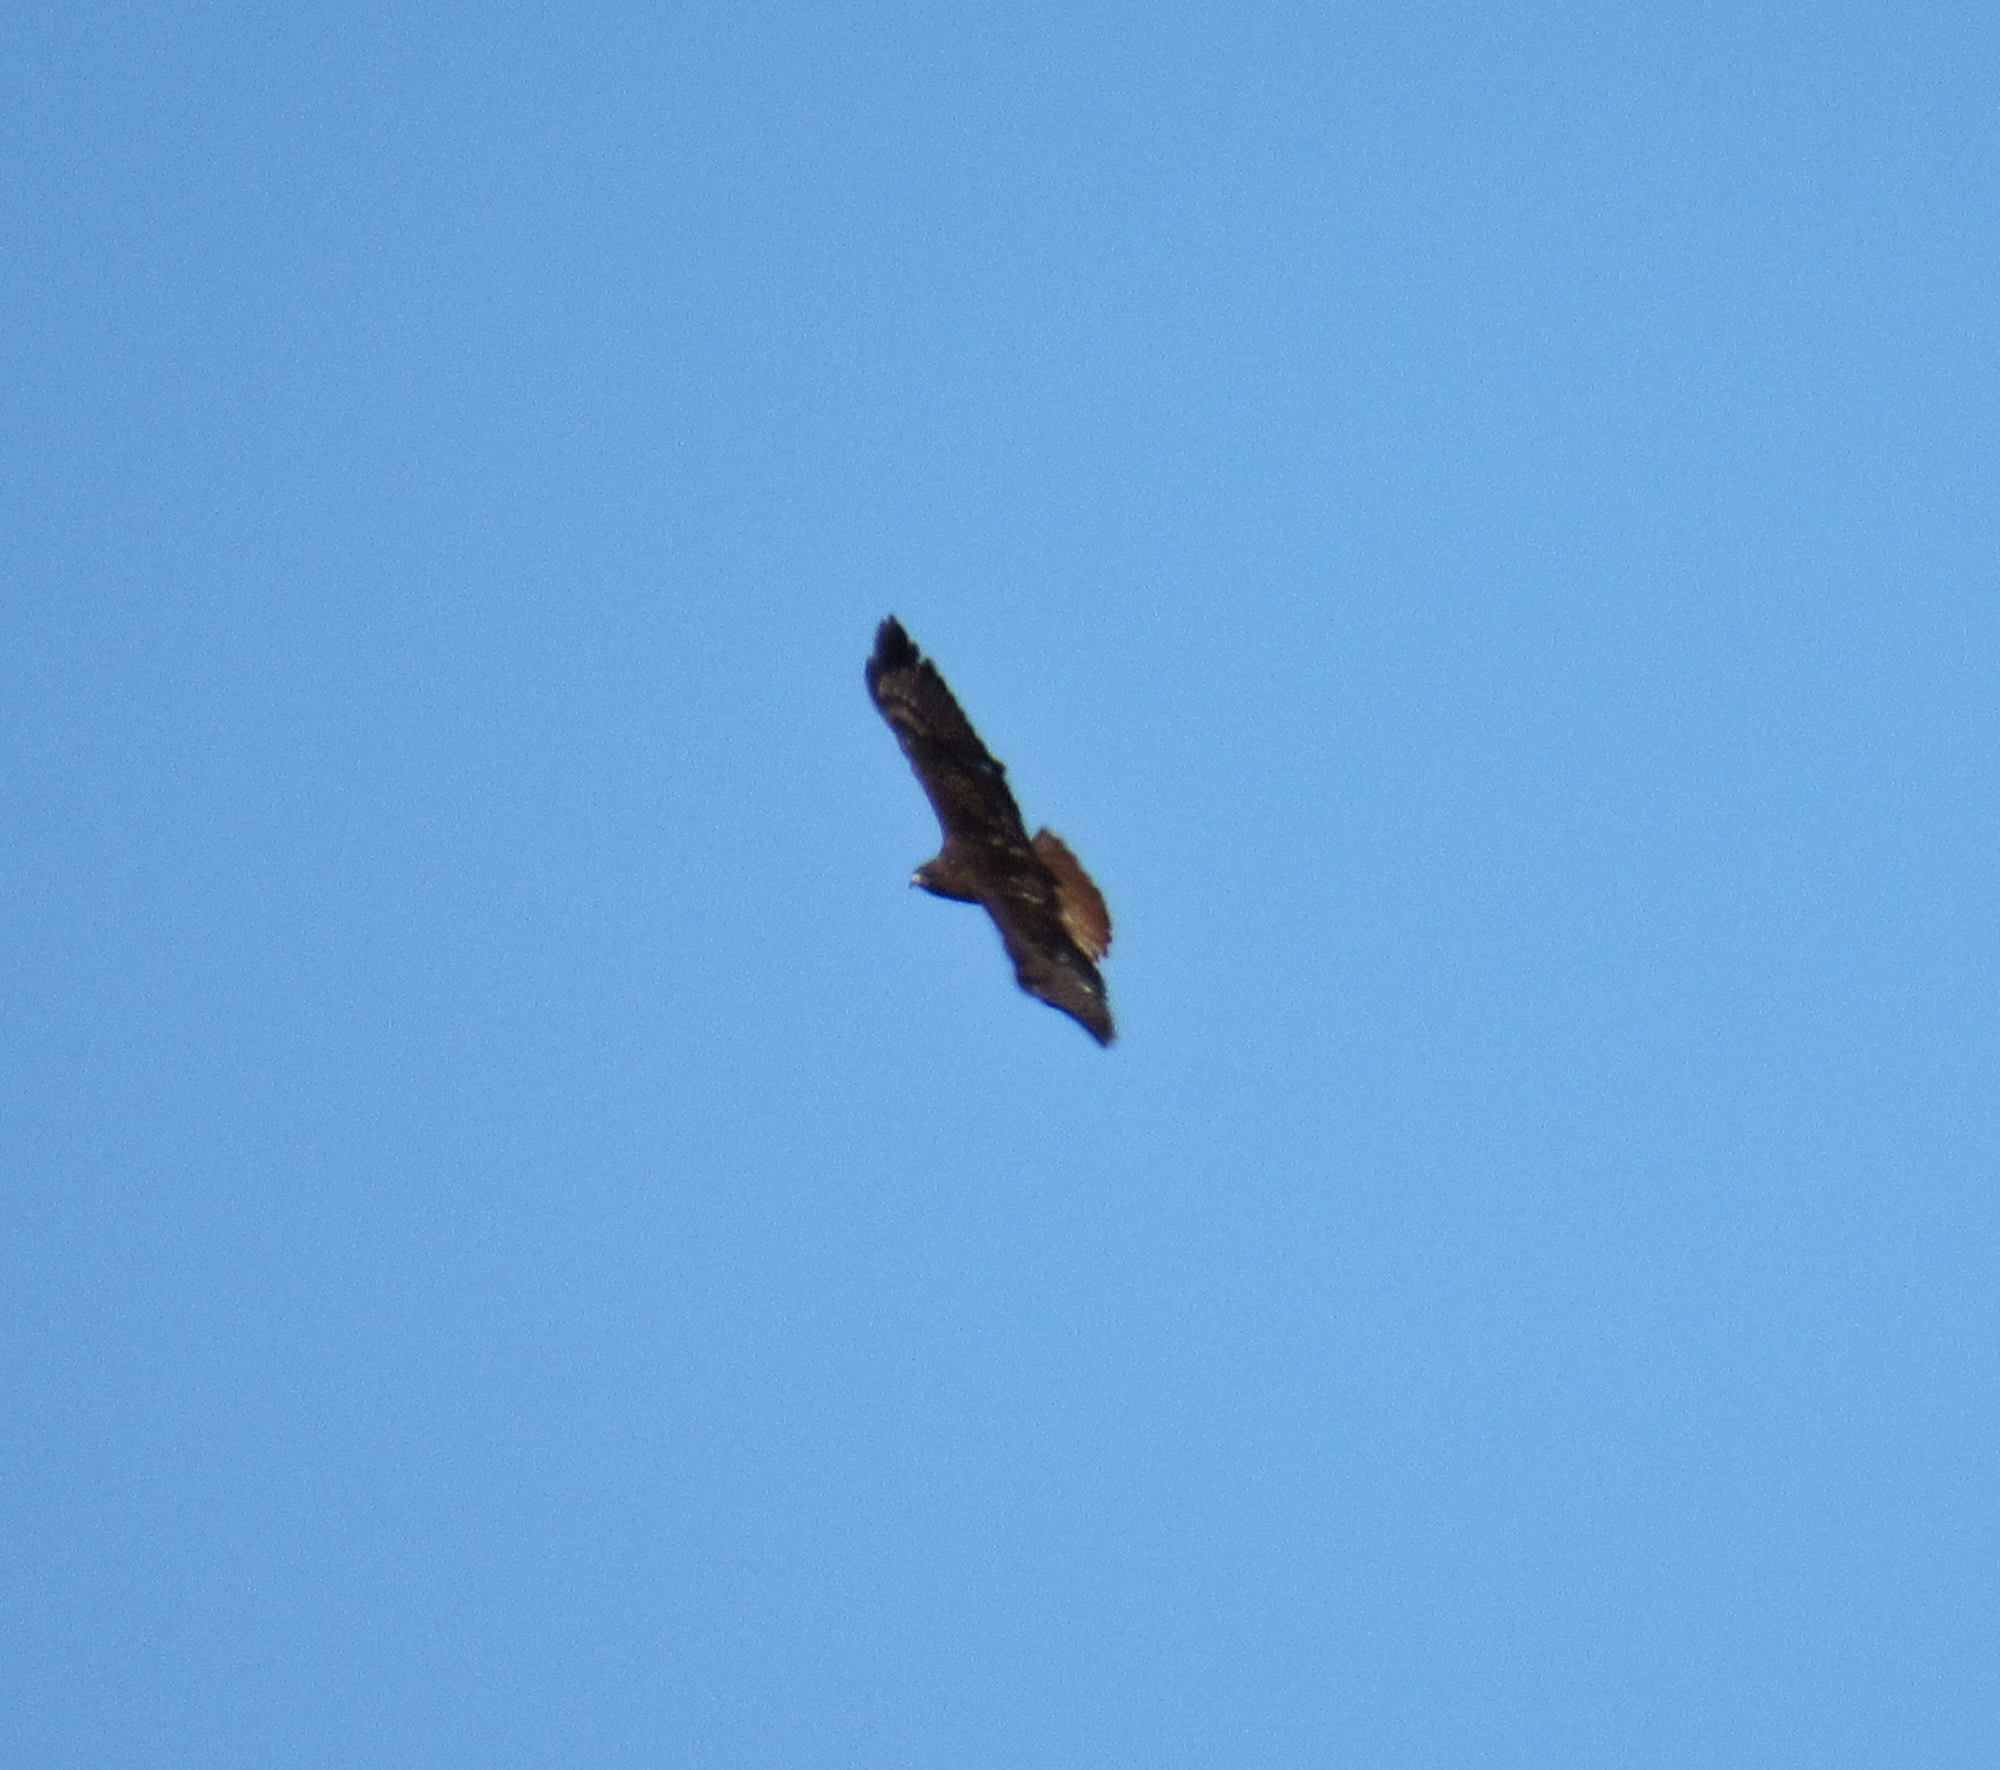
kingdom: Animalia
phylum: Chordata
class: Aves
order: Accipitriformes
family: Accipitridae
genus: Buteo
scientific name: Buteo jamaicensis
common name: Red-tailed hawk
